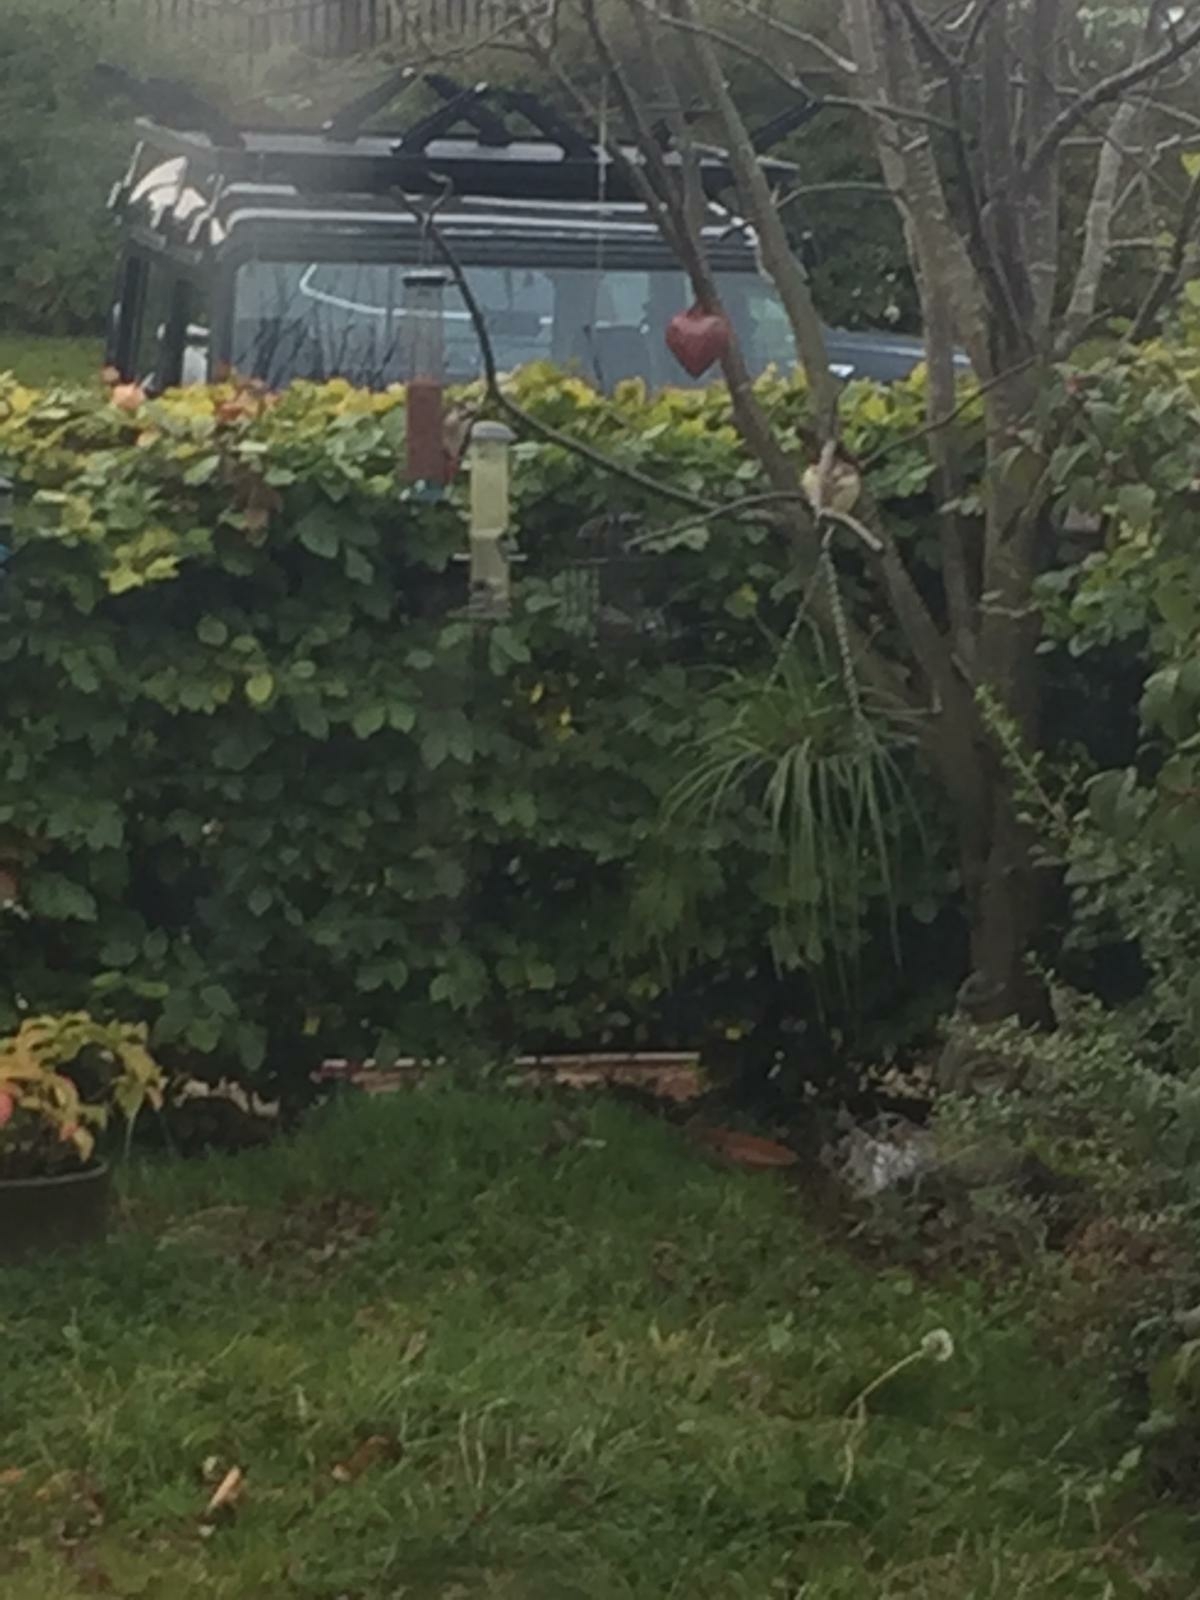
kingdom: Animalia
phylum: Chordata
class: Aves
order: Piciformes
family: Picidae
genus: Dendrocopos
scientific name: Dendrocopos major
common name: Great spotted woodpecker
